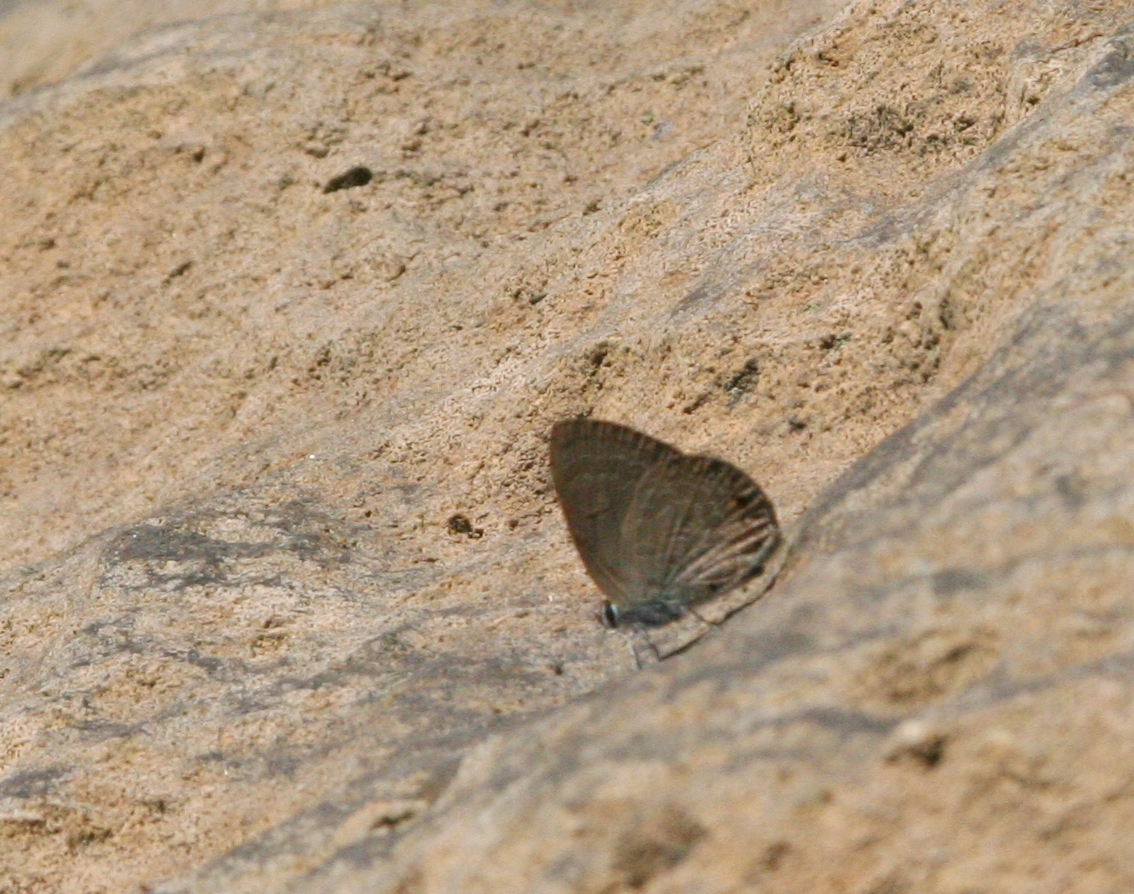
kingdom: Animalia
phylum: Arthropoda
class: Insecta
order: Lepidoptera
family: Lycaenidae
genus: Anthene
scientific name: Anthene emolus
